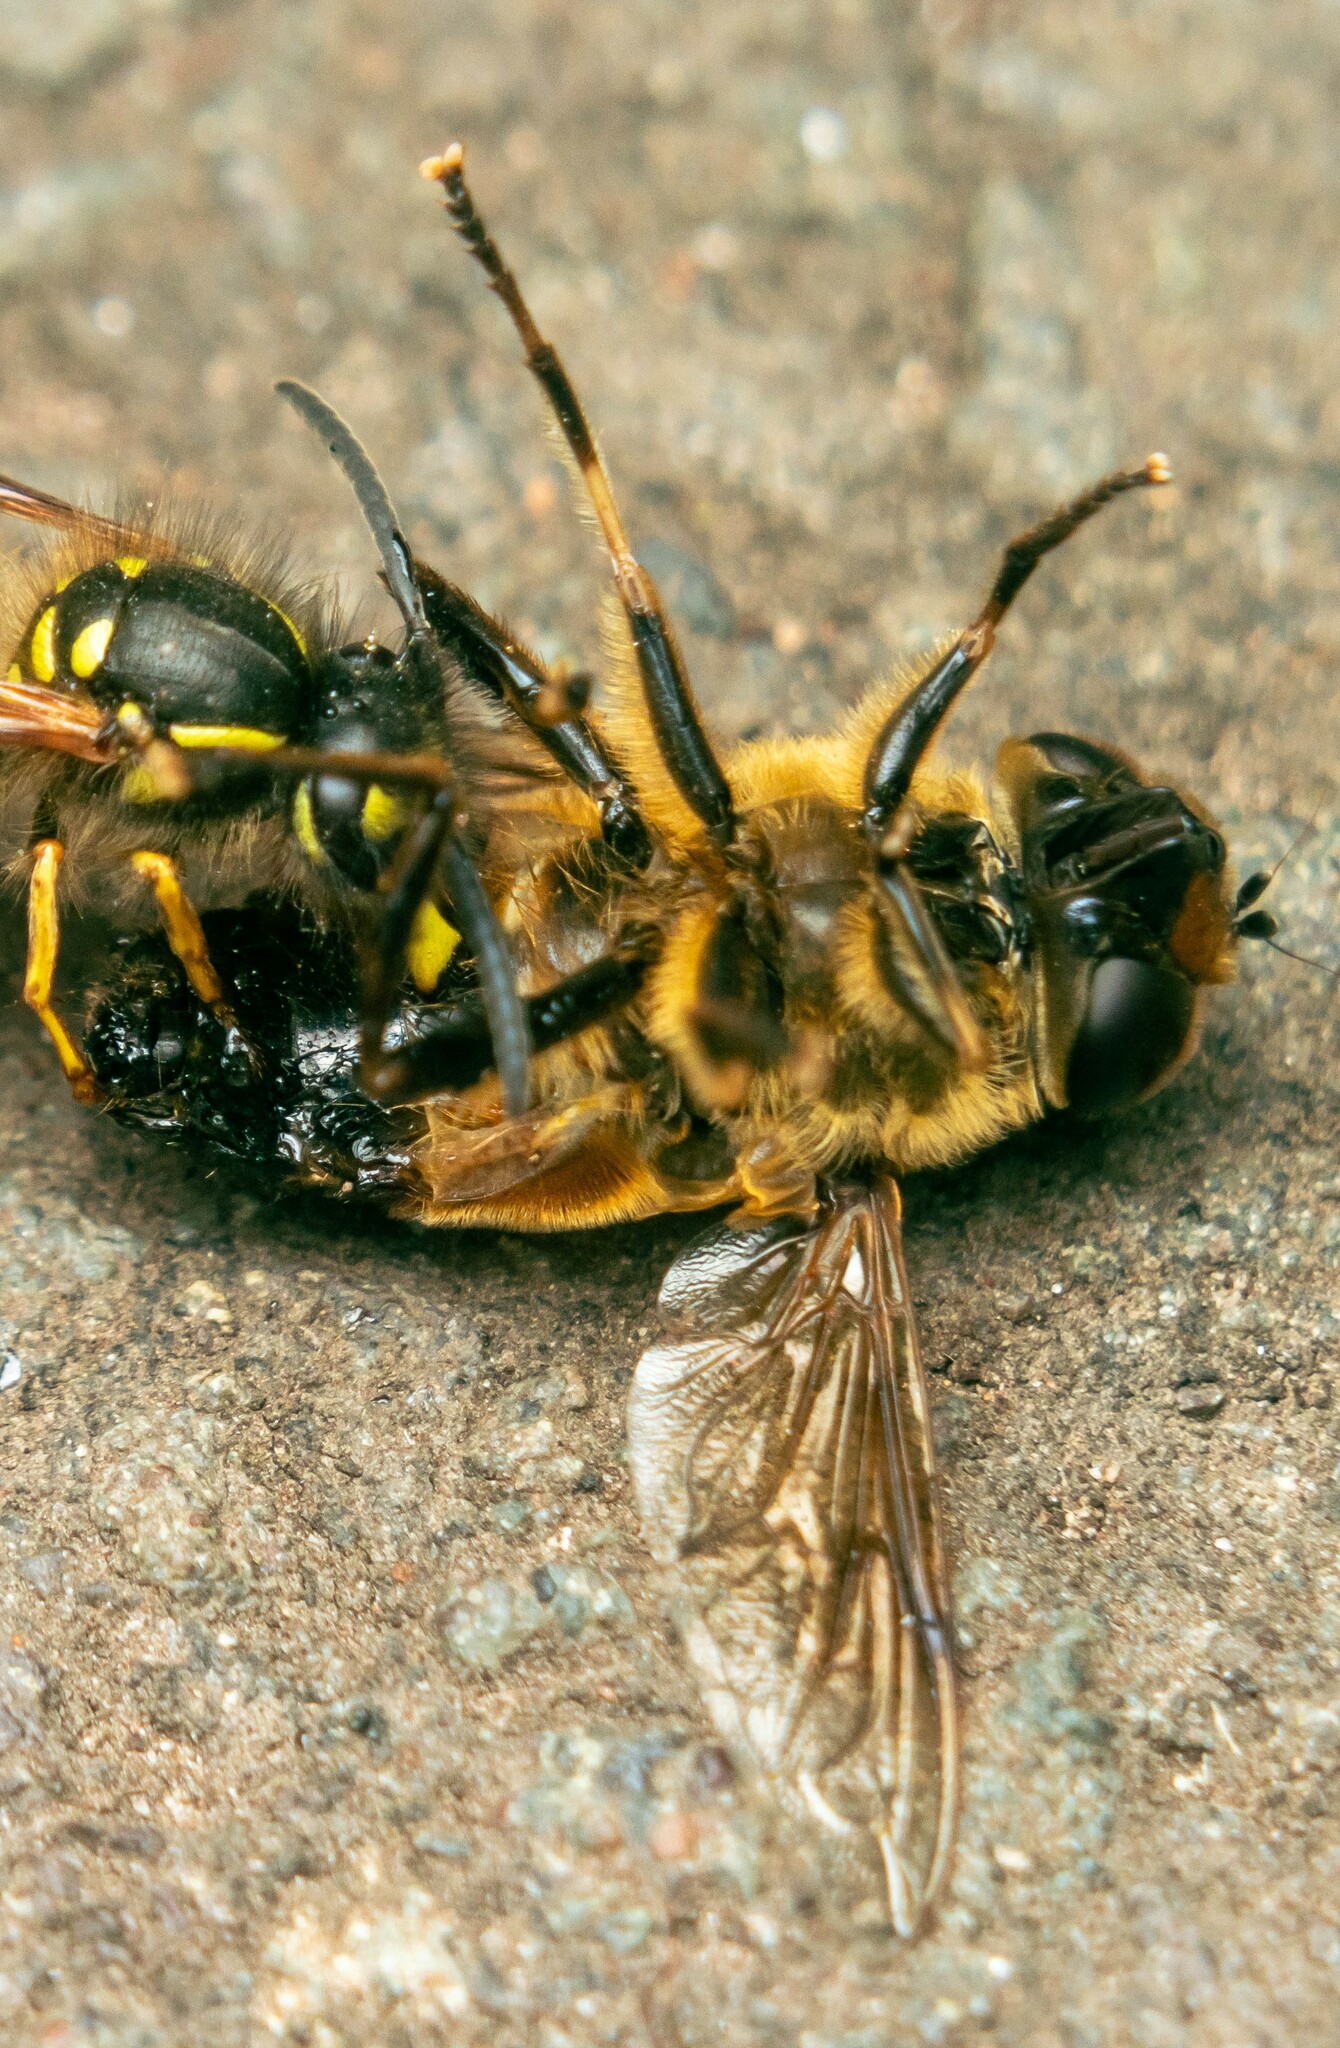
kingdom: Animalia
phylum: Arthropoda
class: Insecta
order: Diptera
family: Syrphidae
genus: Eristalis
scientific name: Eristalis tenax
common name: Drone fly
